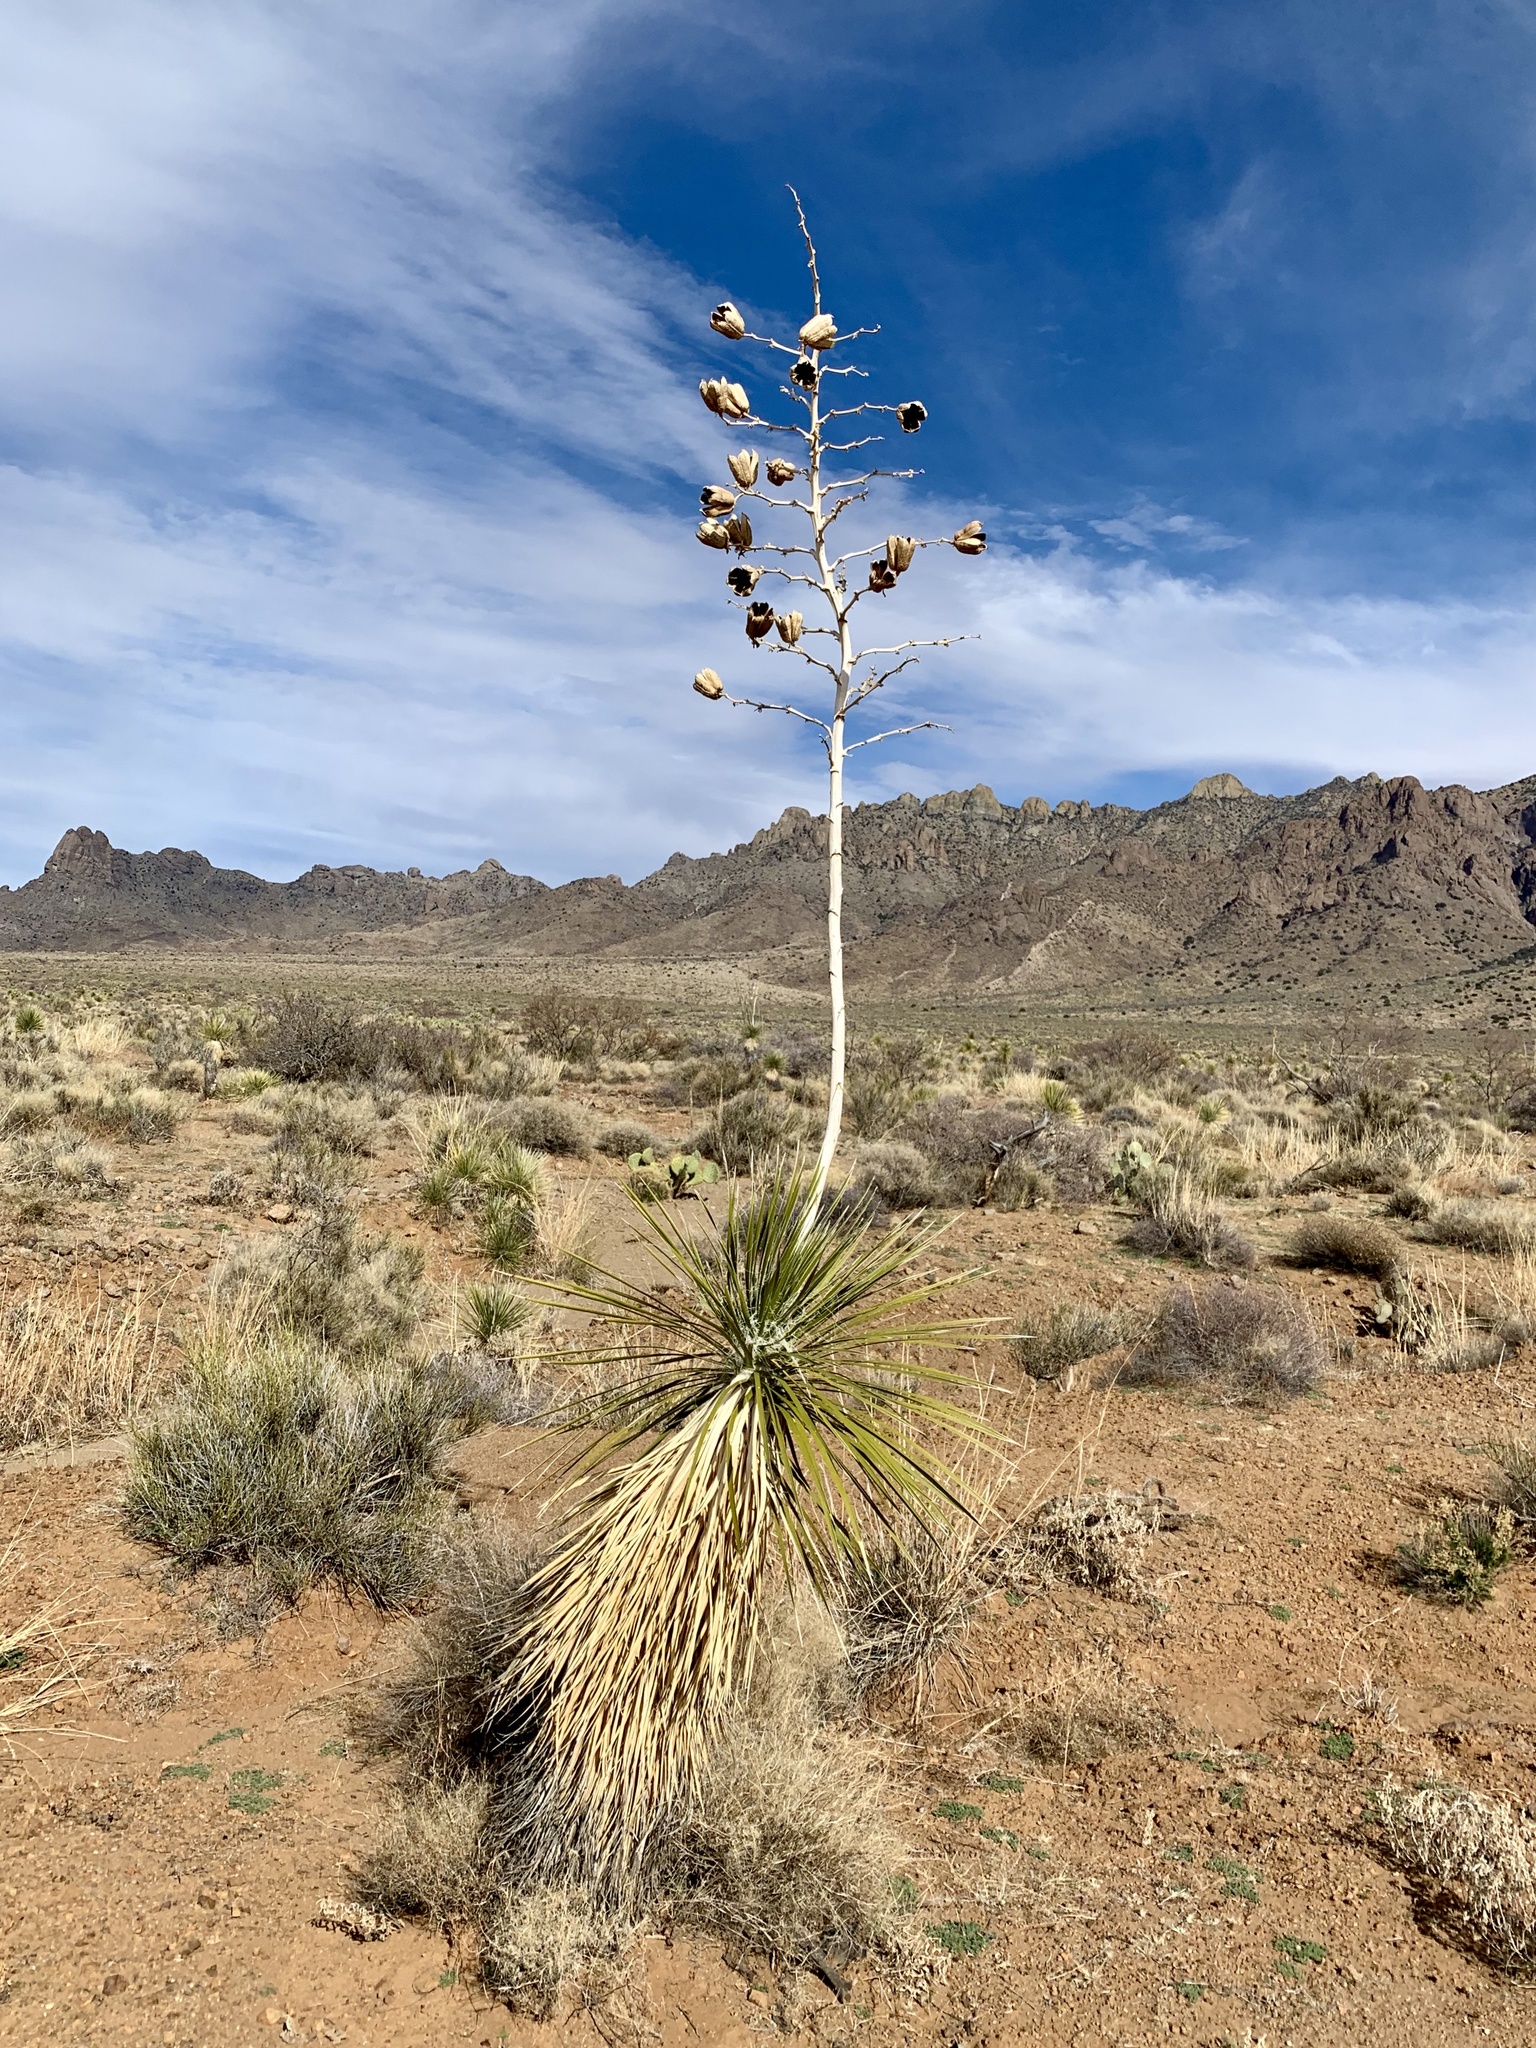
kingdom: Plantae
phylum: Tracheophyta
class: Liliopsida
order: Asparagales
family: Asparagaceae
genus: Yucca
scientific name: Yucca elata
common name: Palmella
